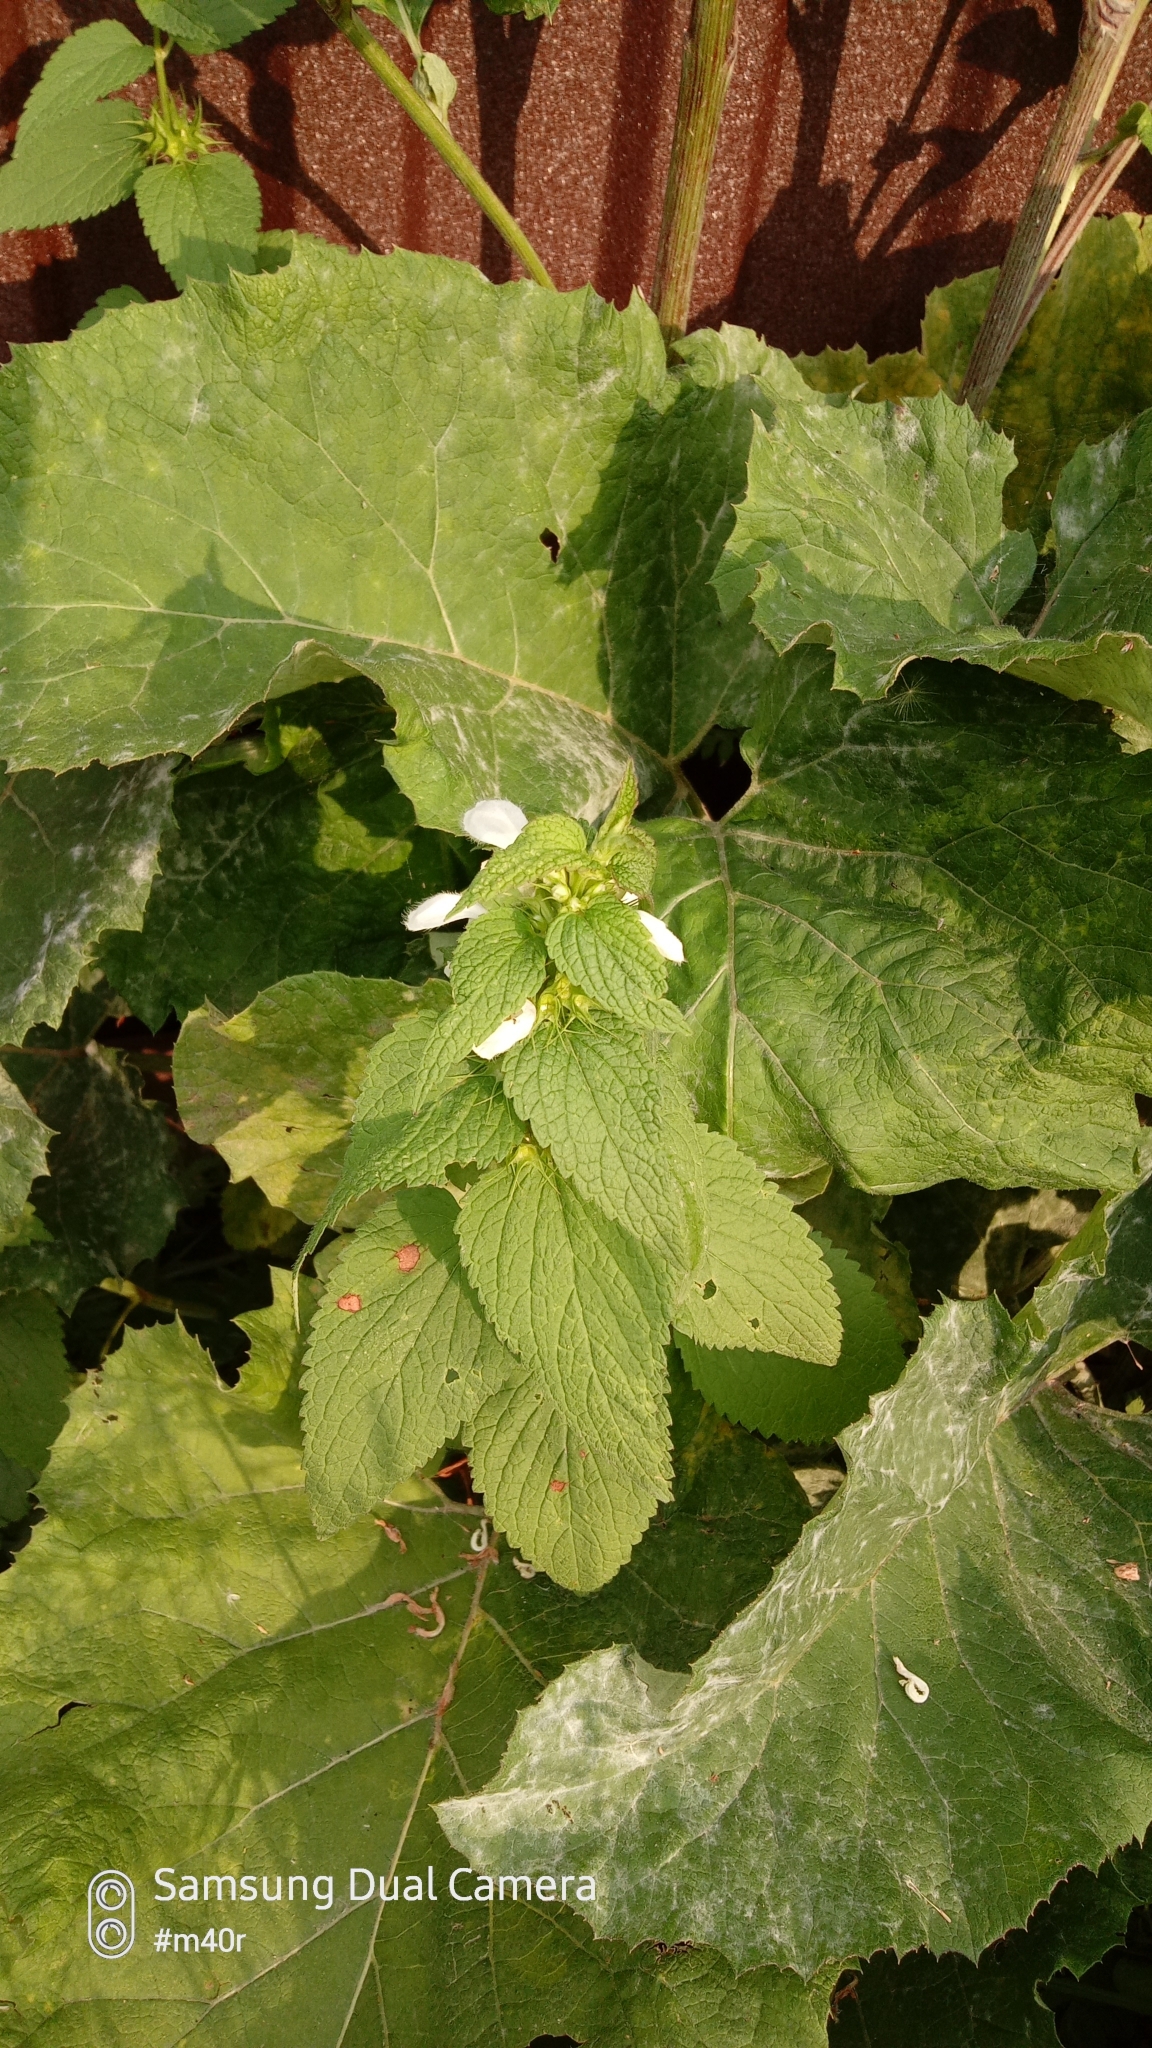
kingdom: Plantae
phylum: Tracheophyta
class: Magnoliopsida
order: Lamiales
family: Lamiaceae
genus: Lamium
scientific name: Lamium album
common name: White dead-nettle
